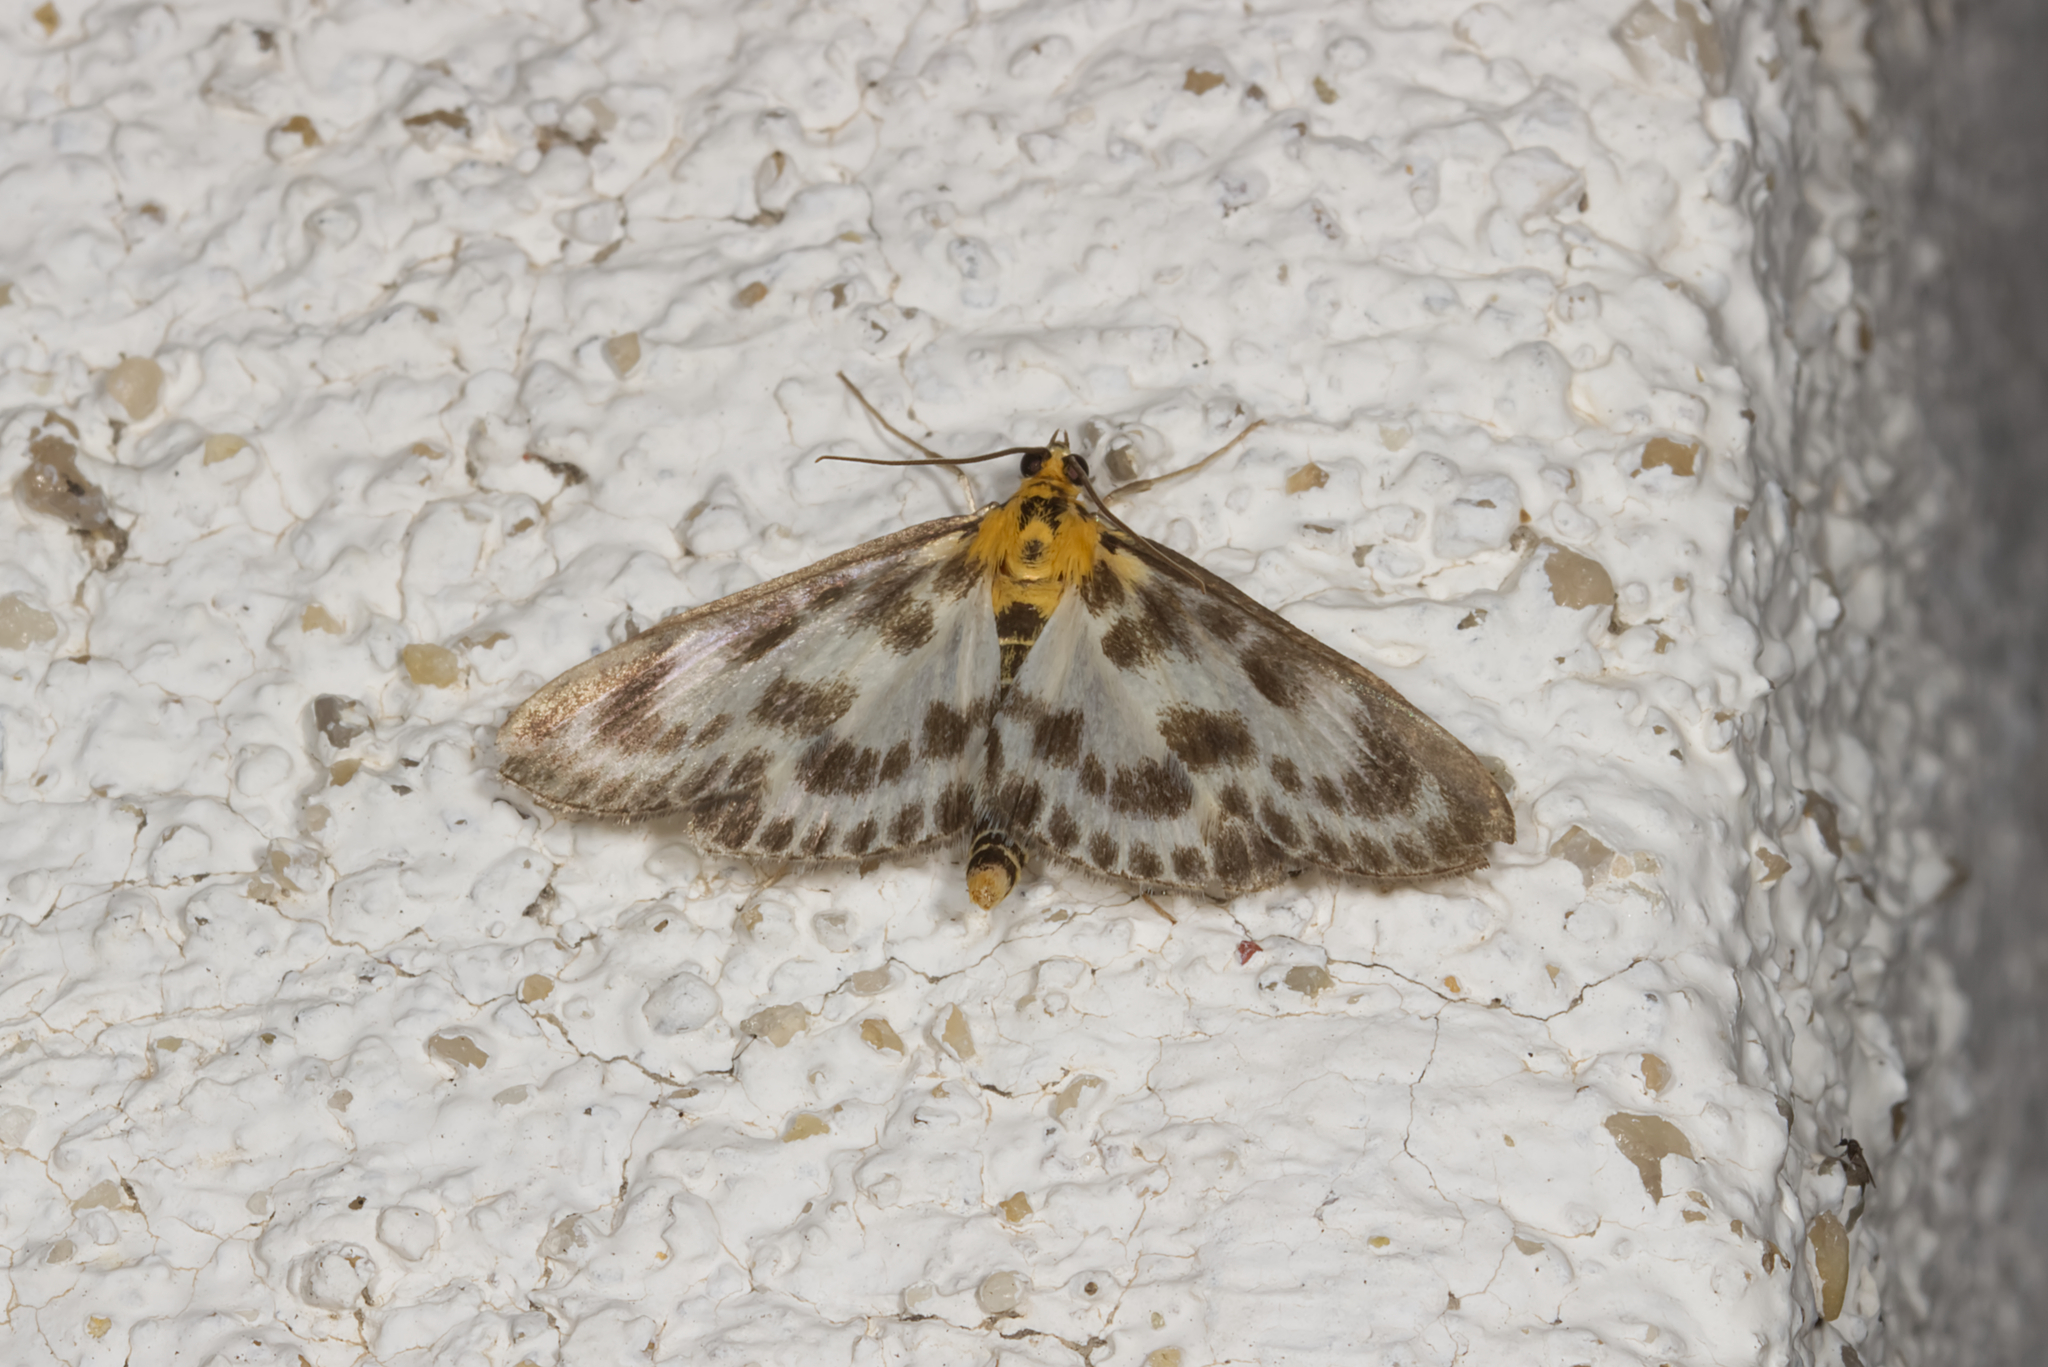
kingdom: Animalia
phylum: Arthropoda
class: Insecta
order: Lepidoptera
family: Crambidae
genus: Anania
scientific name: Anania hortulata
